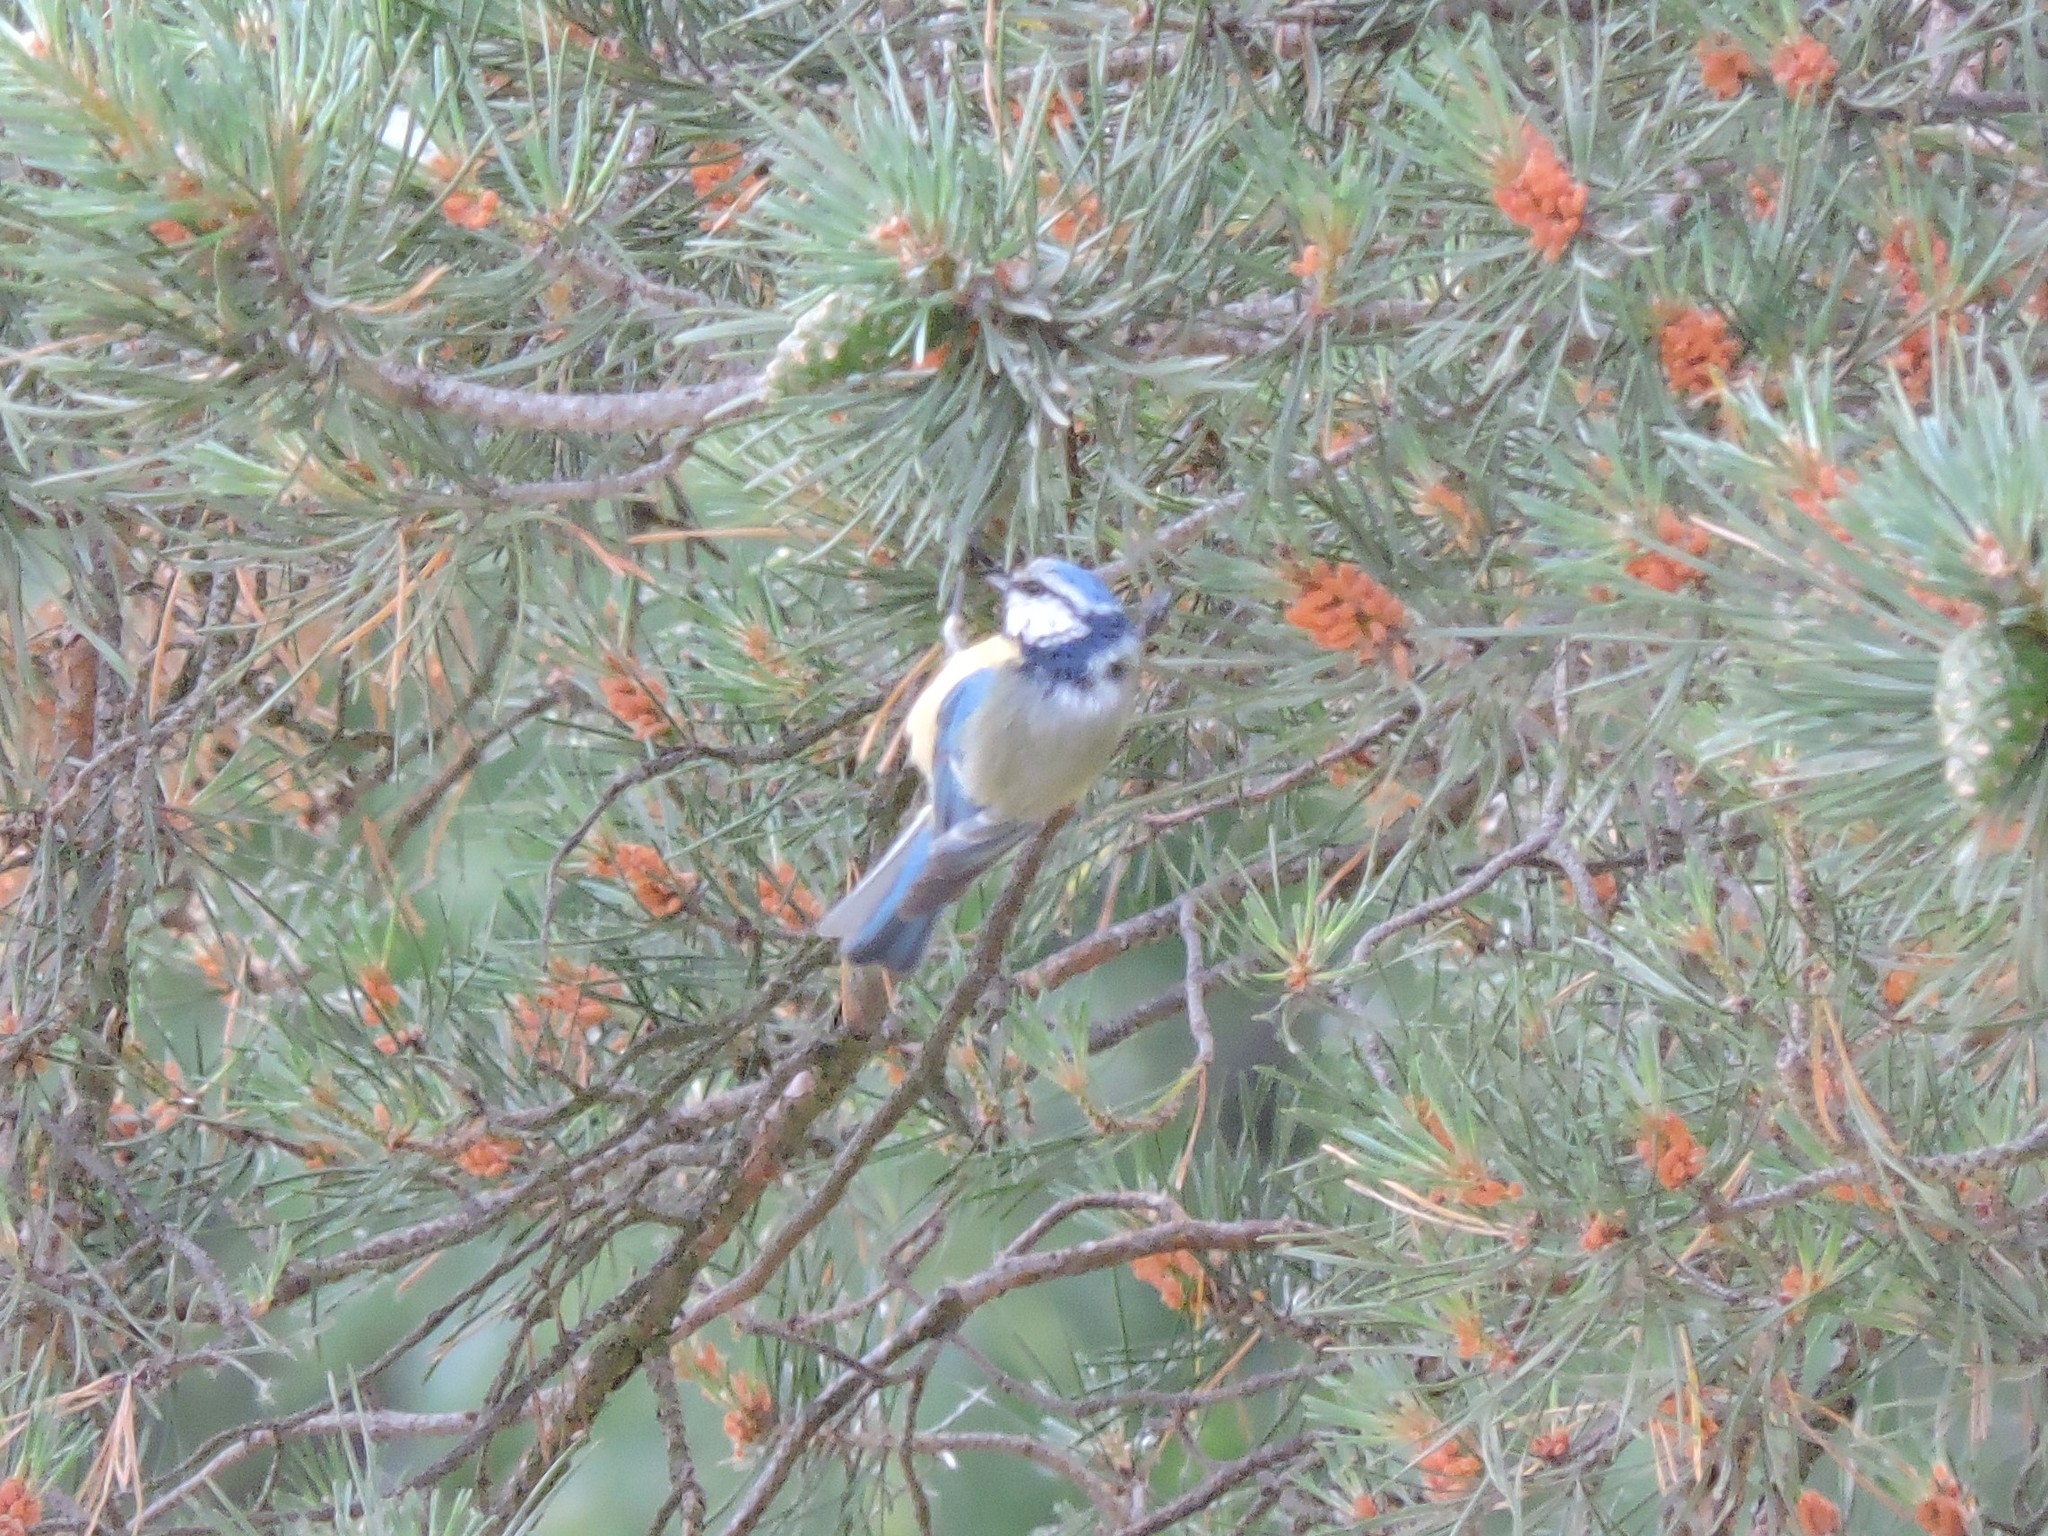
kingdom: Animalia
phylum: Chordata
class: Aves
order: Passeriformes
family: Paridae
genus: Cyanistes
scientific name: Cyanistes caeruleus
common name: Eurasian blue tit
